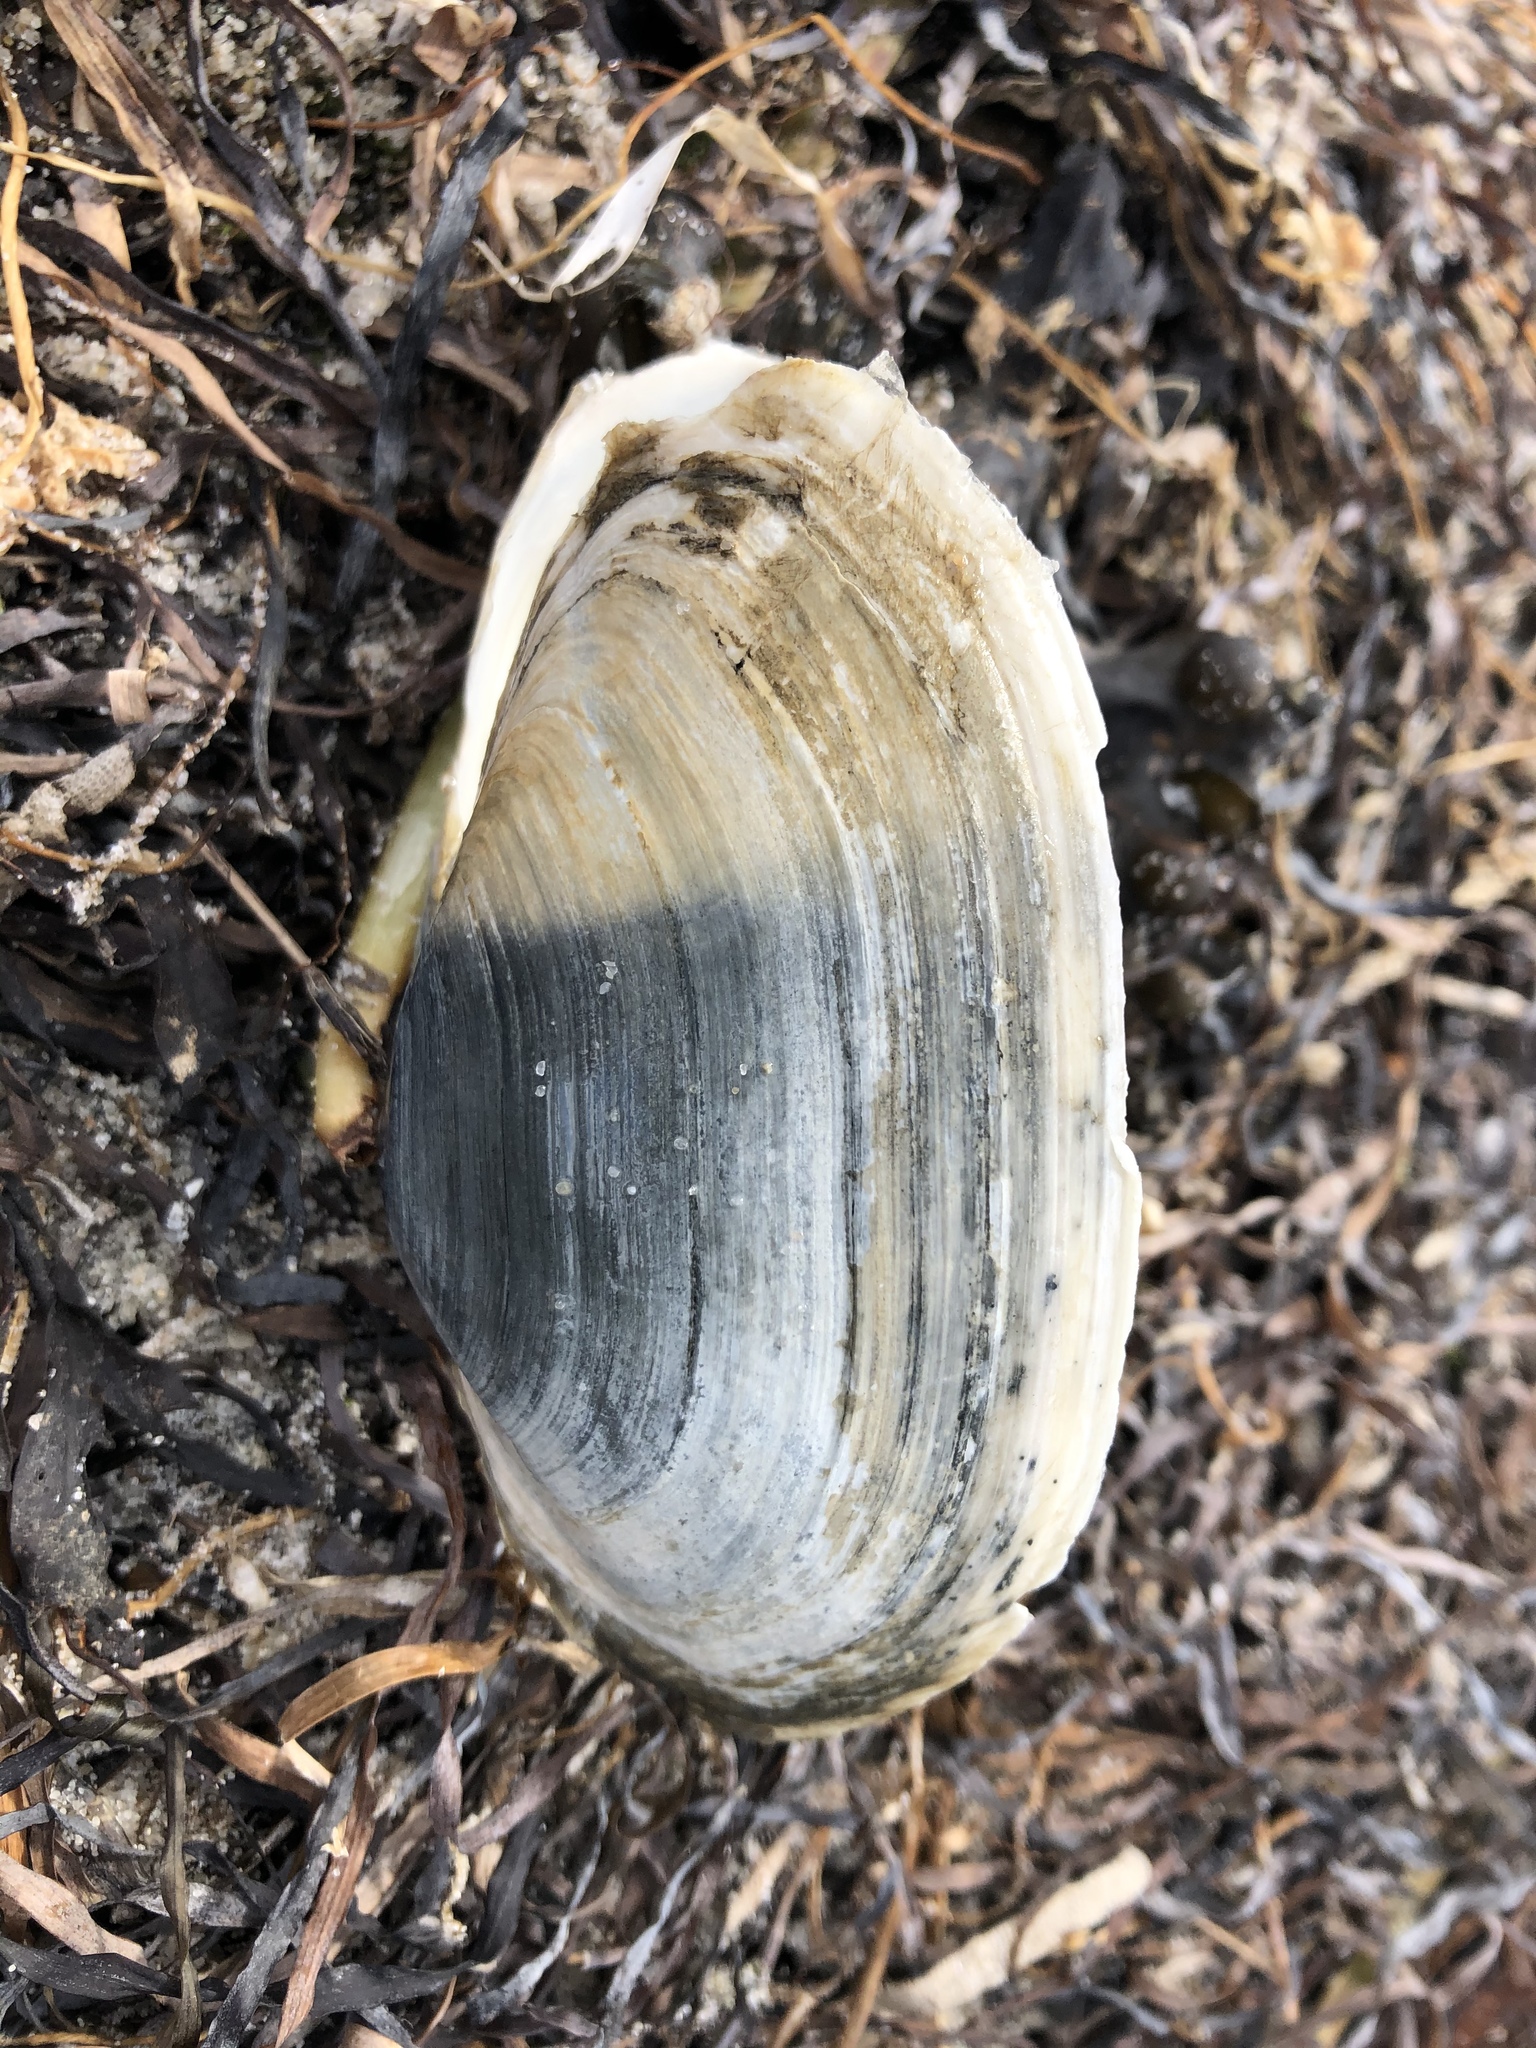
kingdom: Animalia
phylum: Mollusca
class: Bivalvia
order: Myida
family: Myidae
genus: Mya
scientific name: Mya arenaria
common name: Soft-shelled clam
